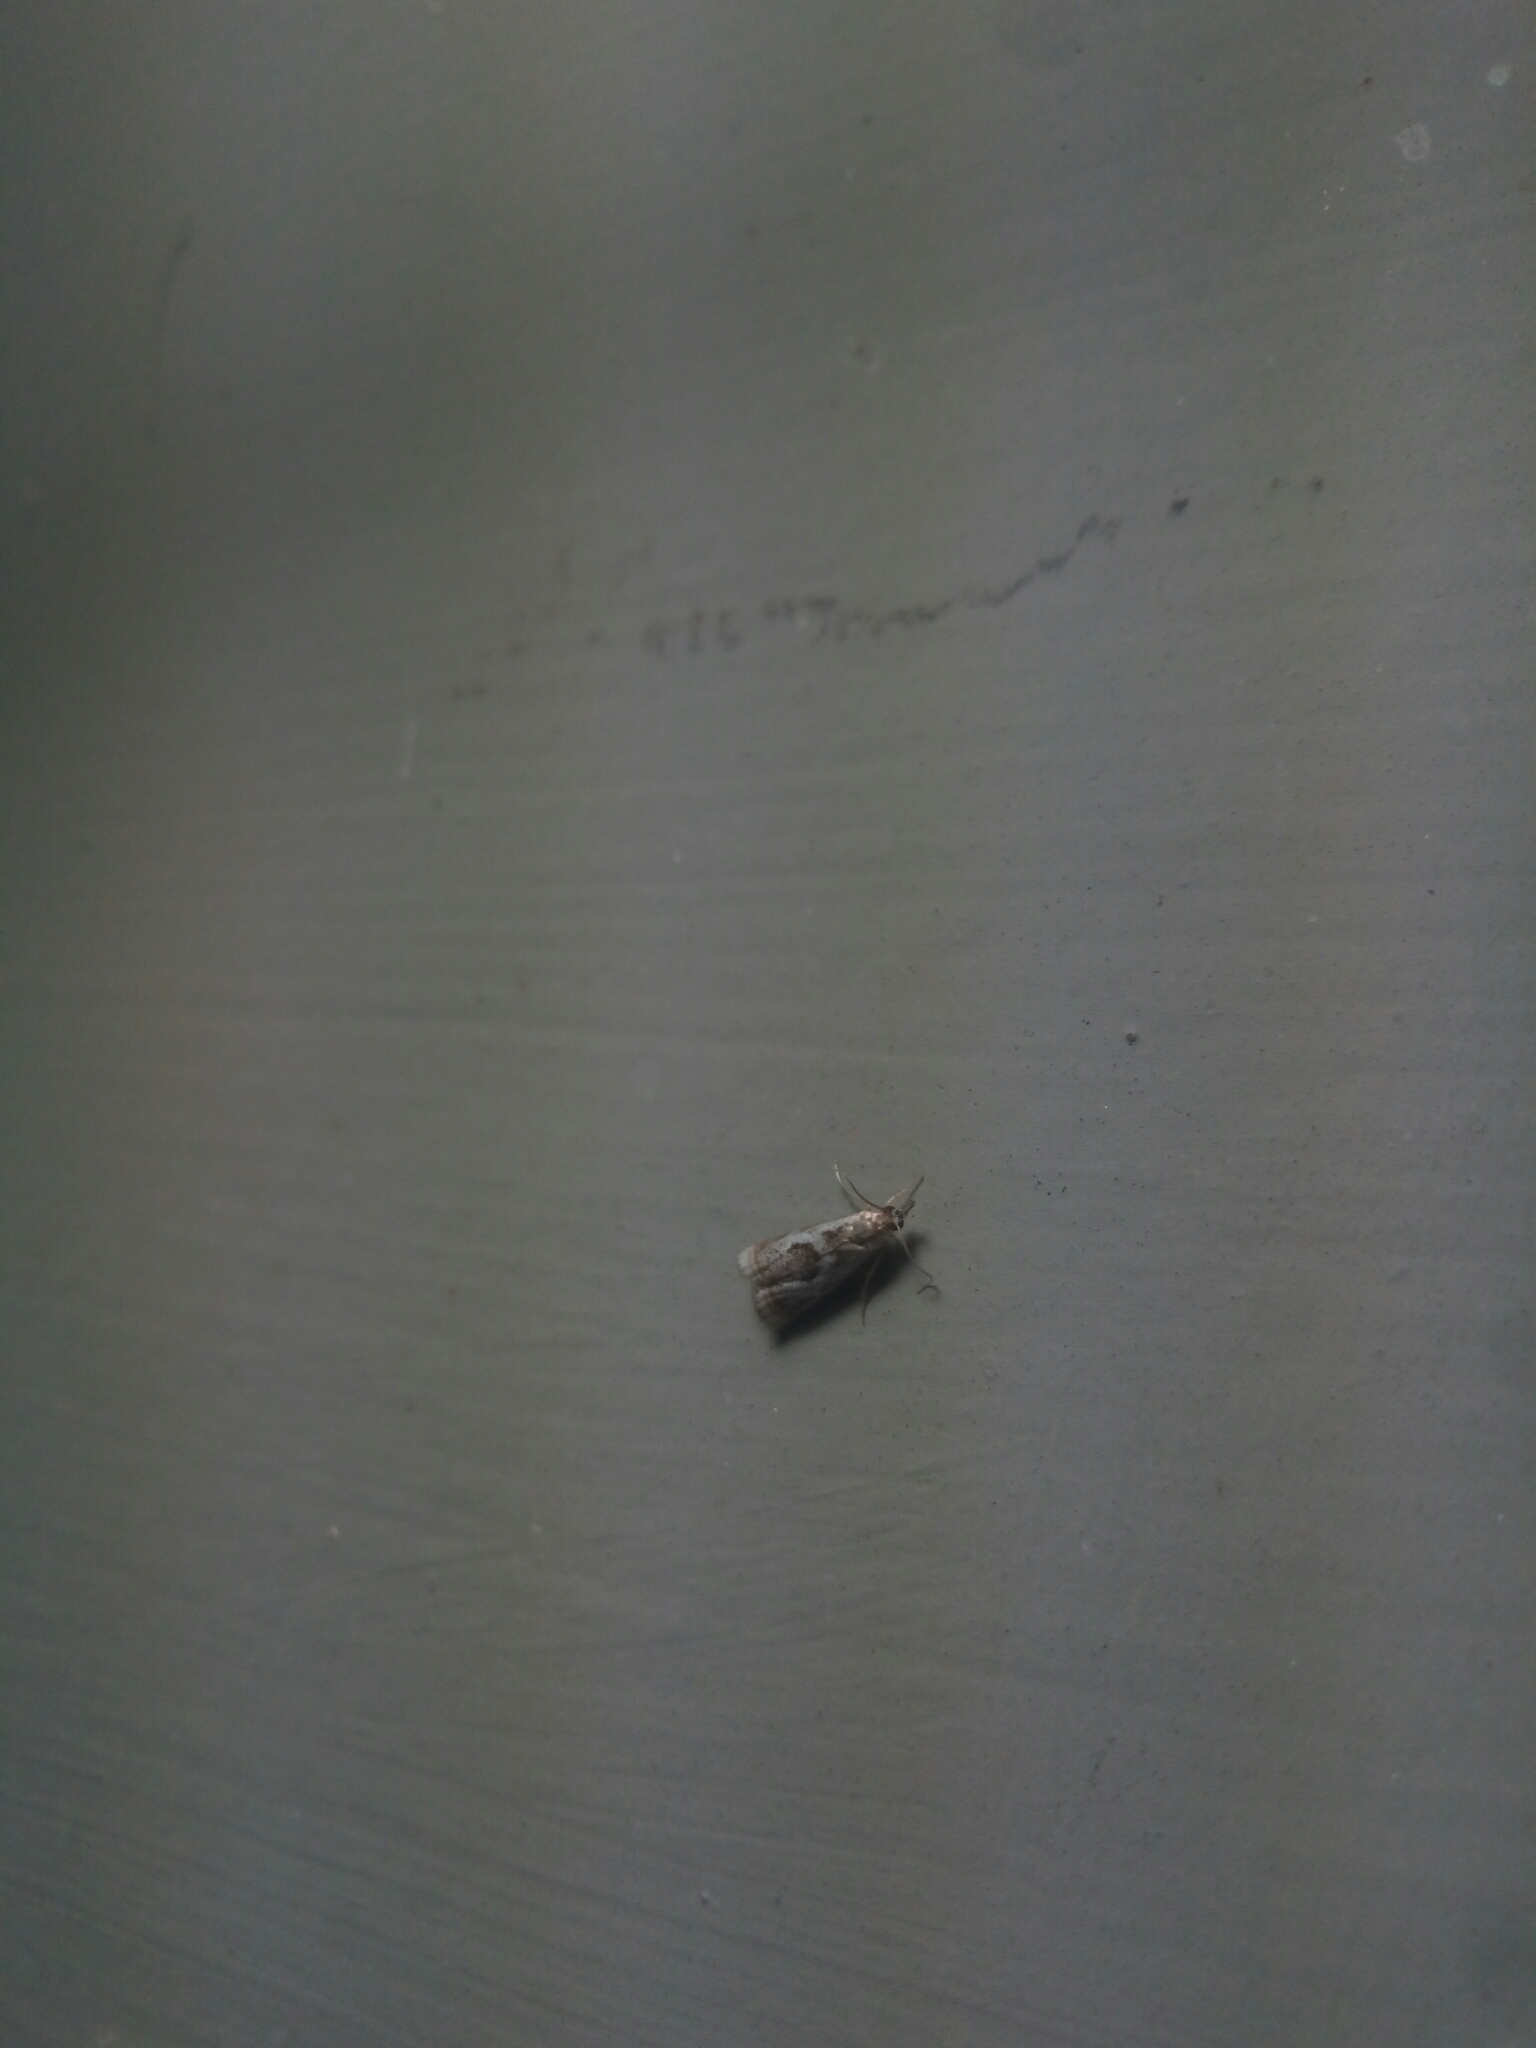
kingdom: Animalia
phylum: Arthropoda
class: Insecta
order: Lepidoptera
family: Crambidae
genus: Microcrambus
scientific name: Microcrambus elegans
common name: Elegant grass-veneer
